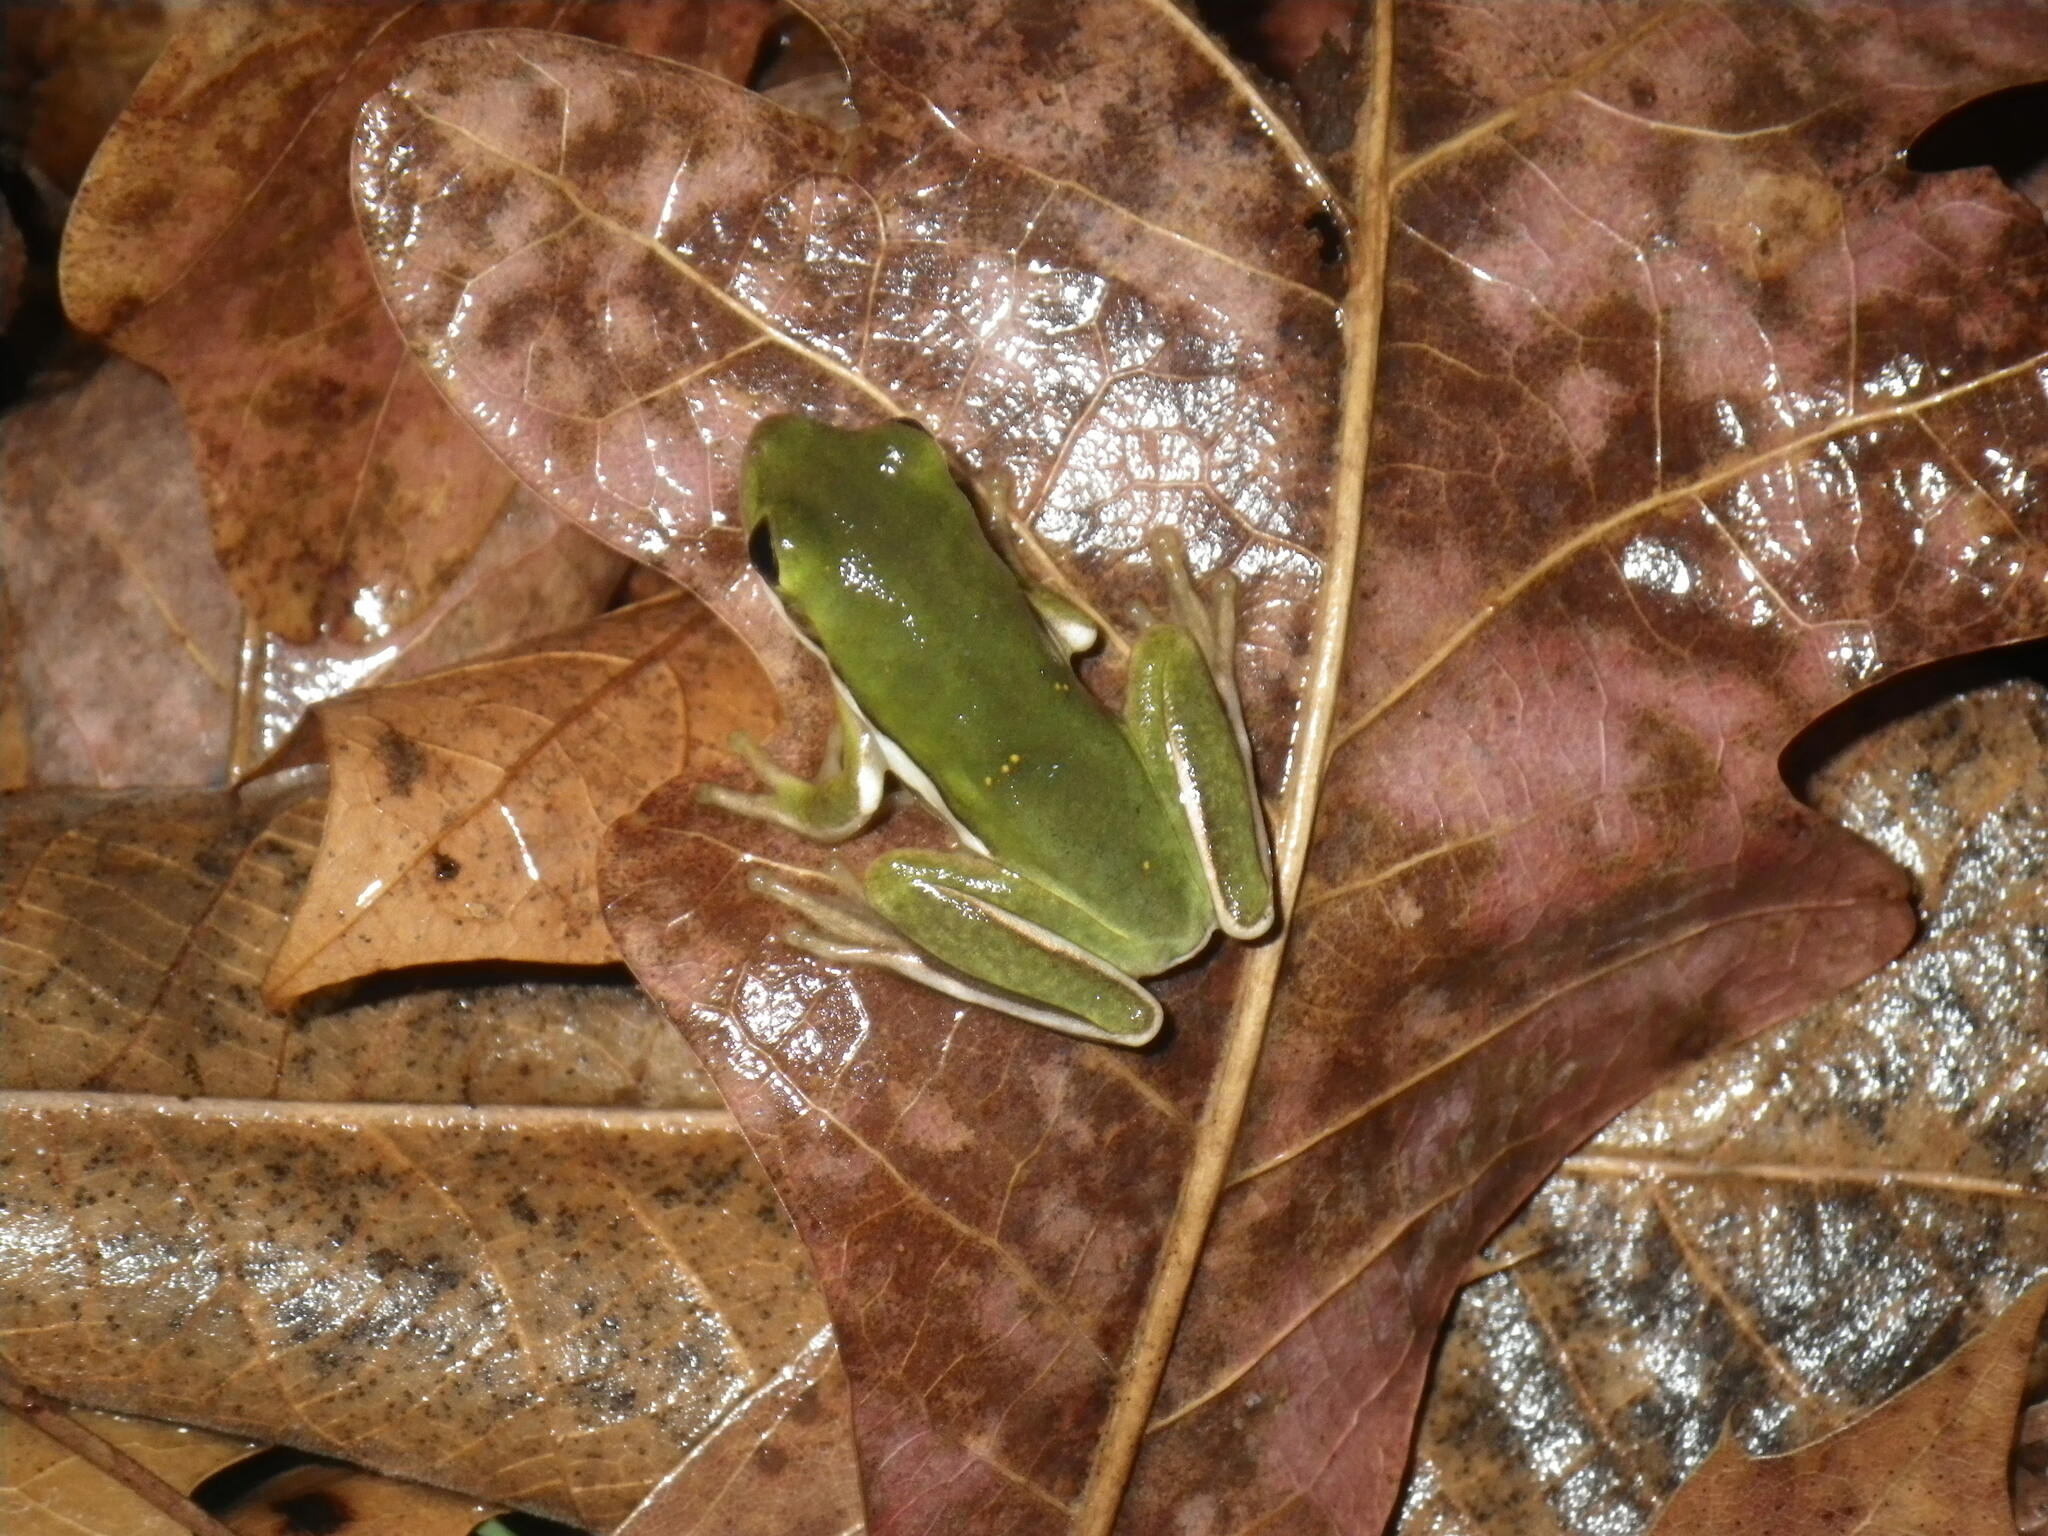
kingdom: Animalia
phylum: Chordata
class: Amphibia
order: Anura
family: Hylidae
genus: Dryophytes
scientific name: Dryophytes cinereus
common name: Green treefrog
